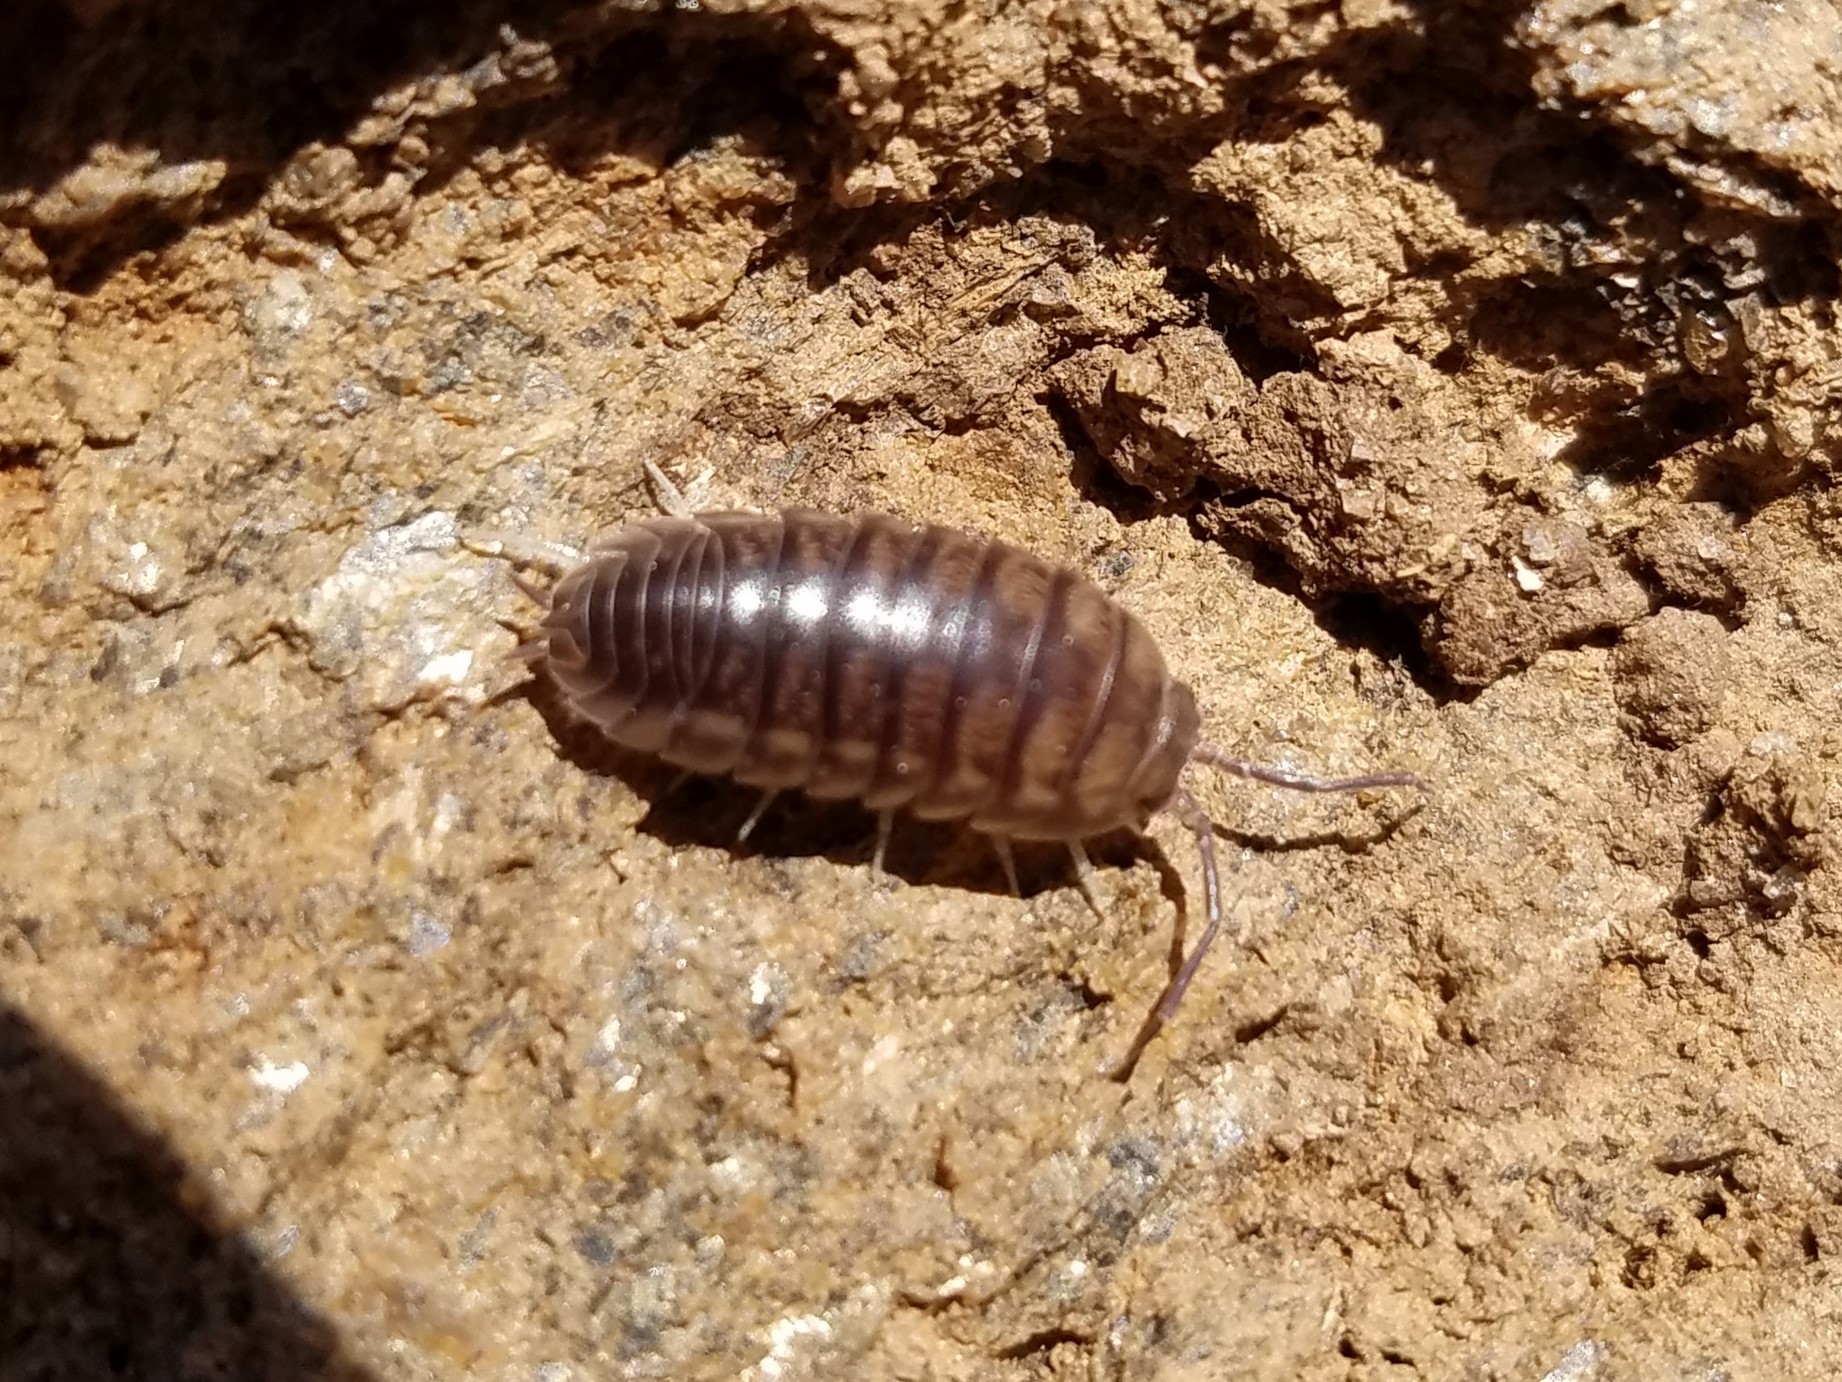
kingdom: Animalia
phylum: Arthropoda
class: Malacostraca
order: Isopoda
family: Cylisticidae
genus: Cylisticus
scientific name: Cylisticus convexus
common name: Curly woodlouse
